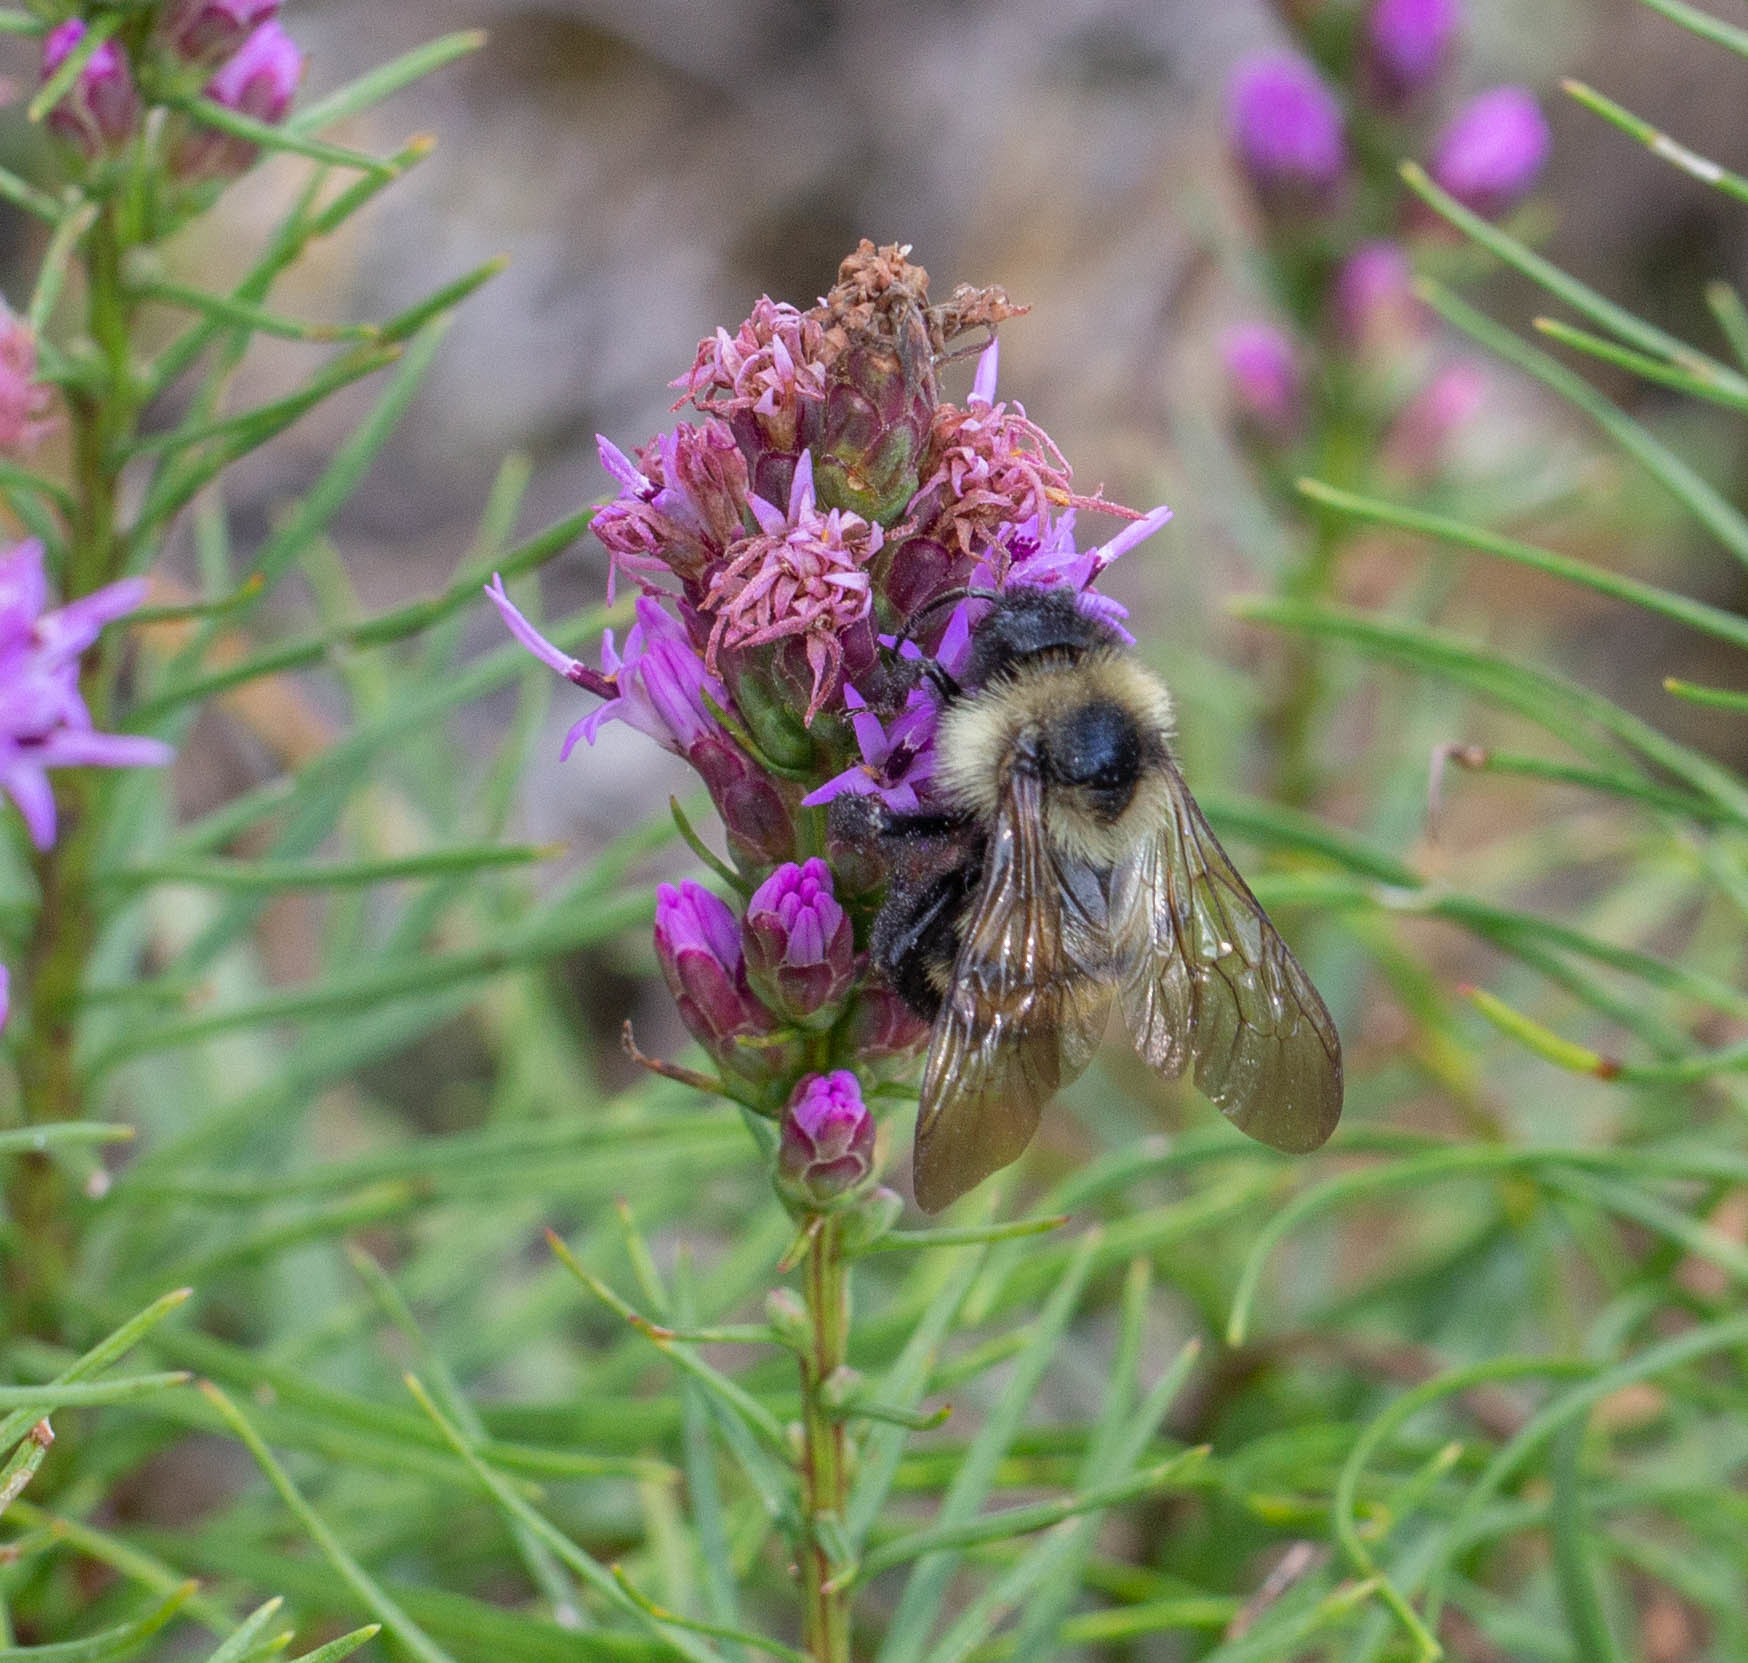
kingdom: Animalia
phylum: Arthropoda
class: Insecta
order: Hymenoptera
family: Apidae
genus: Bombus
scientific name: Bombus citrinus
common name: Lemon cuckoo bumble bee
